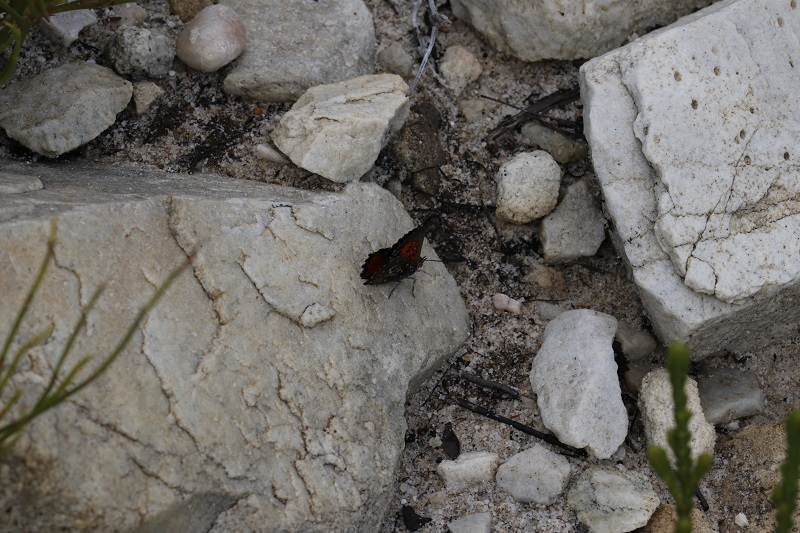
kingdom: Animalia
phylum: Arthropoda
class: Insecta
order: Lepidoptera
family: Lycaenidae
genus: Aloeides
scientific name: Aloeides thyra
